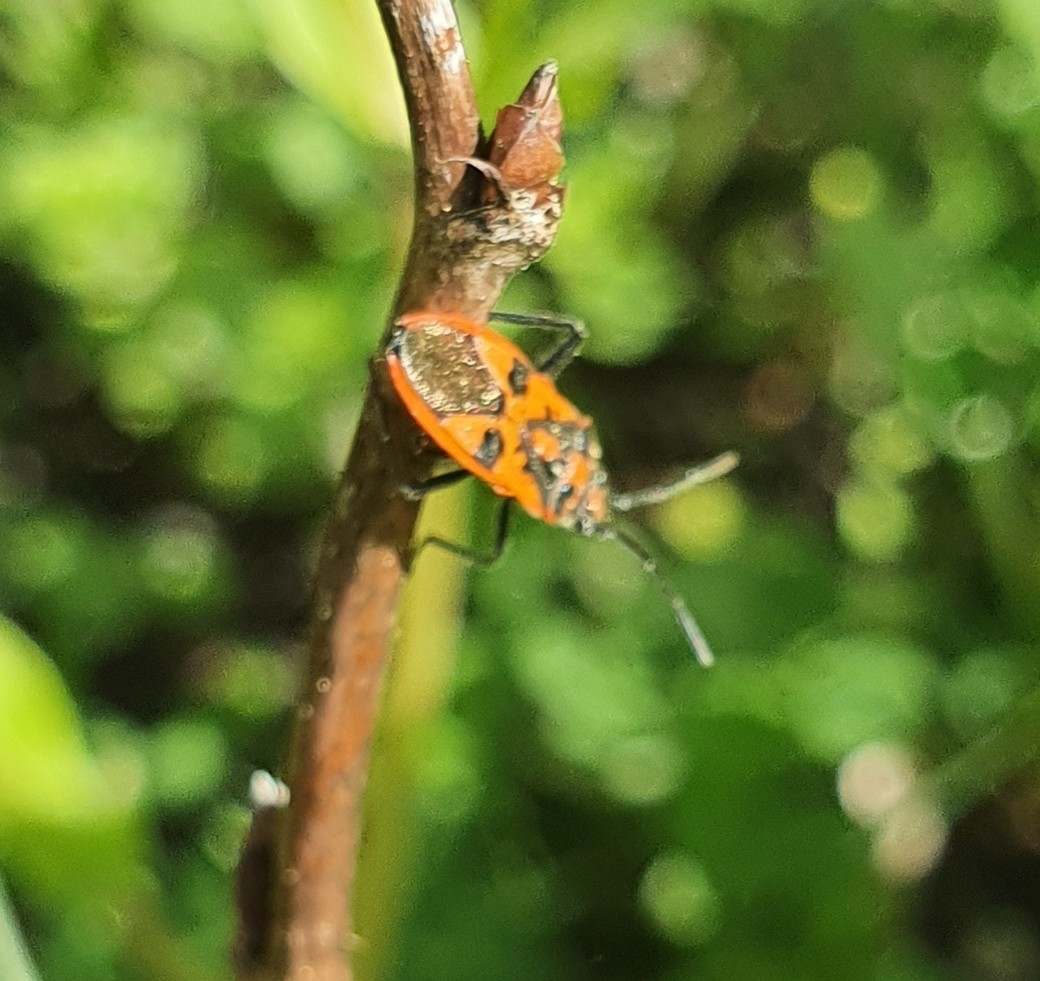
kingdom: Animalia
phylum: Arthropoda
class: Insecta
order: Hemiptera
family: Rhopalidae
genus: Corizus
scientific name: Corizus hyoscyami
